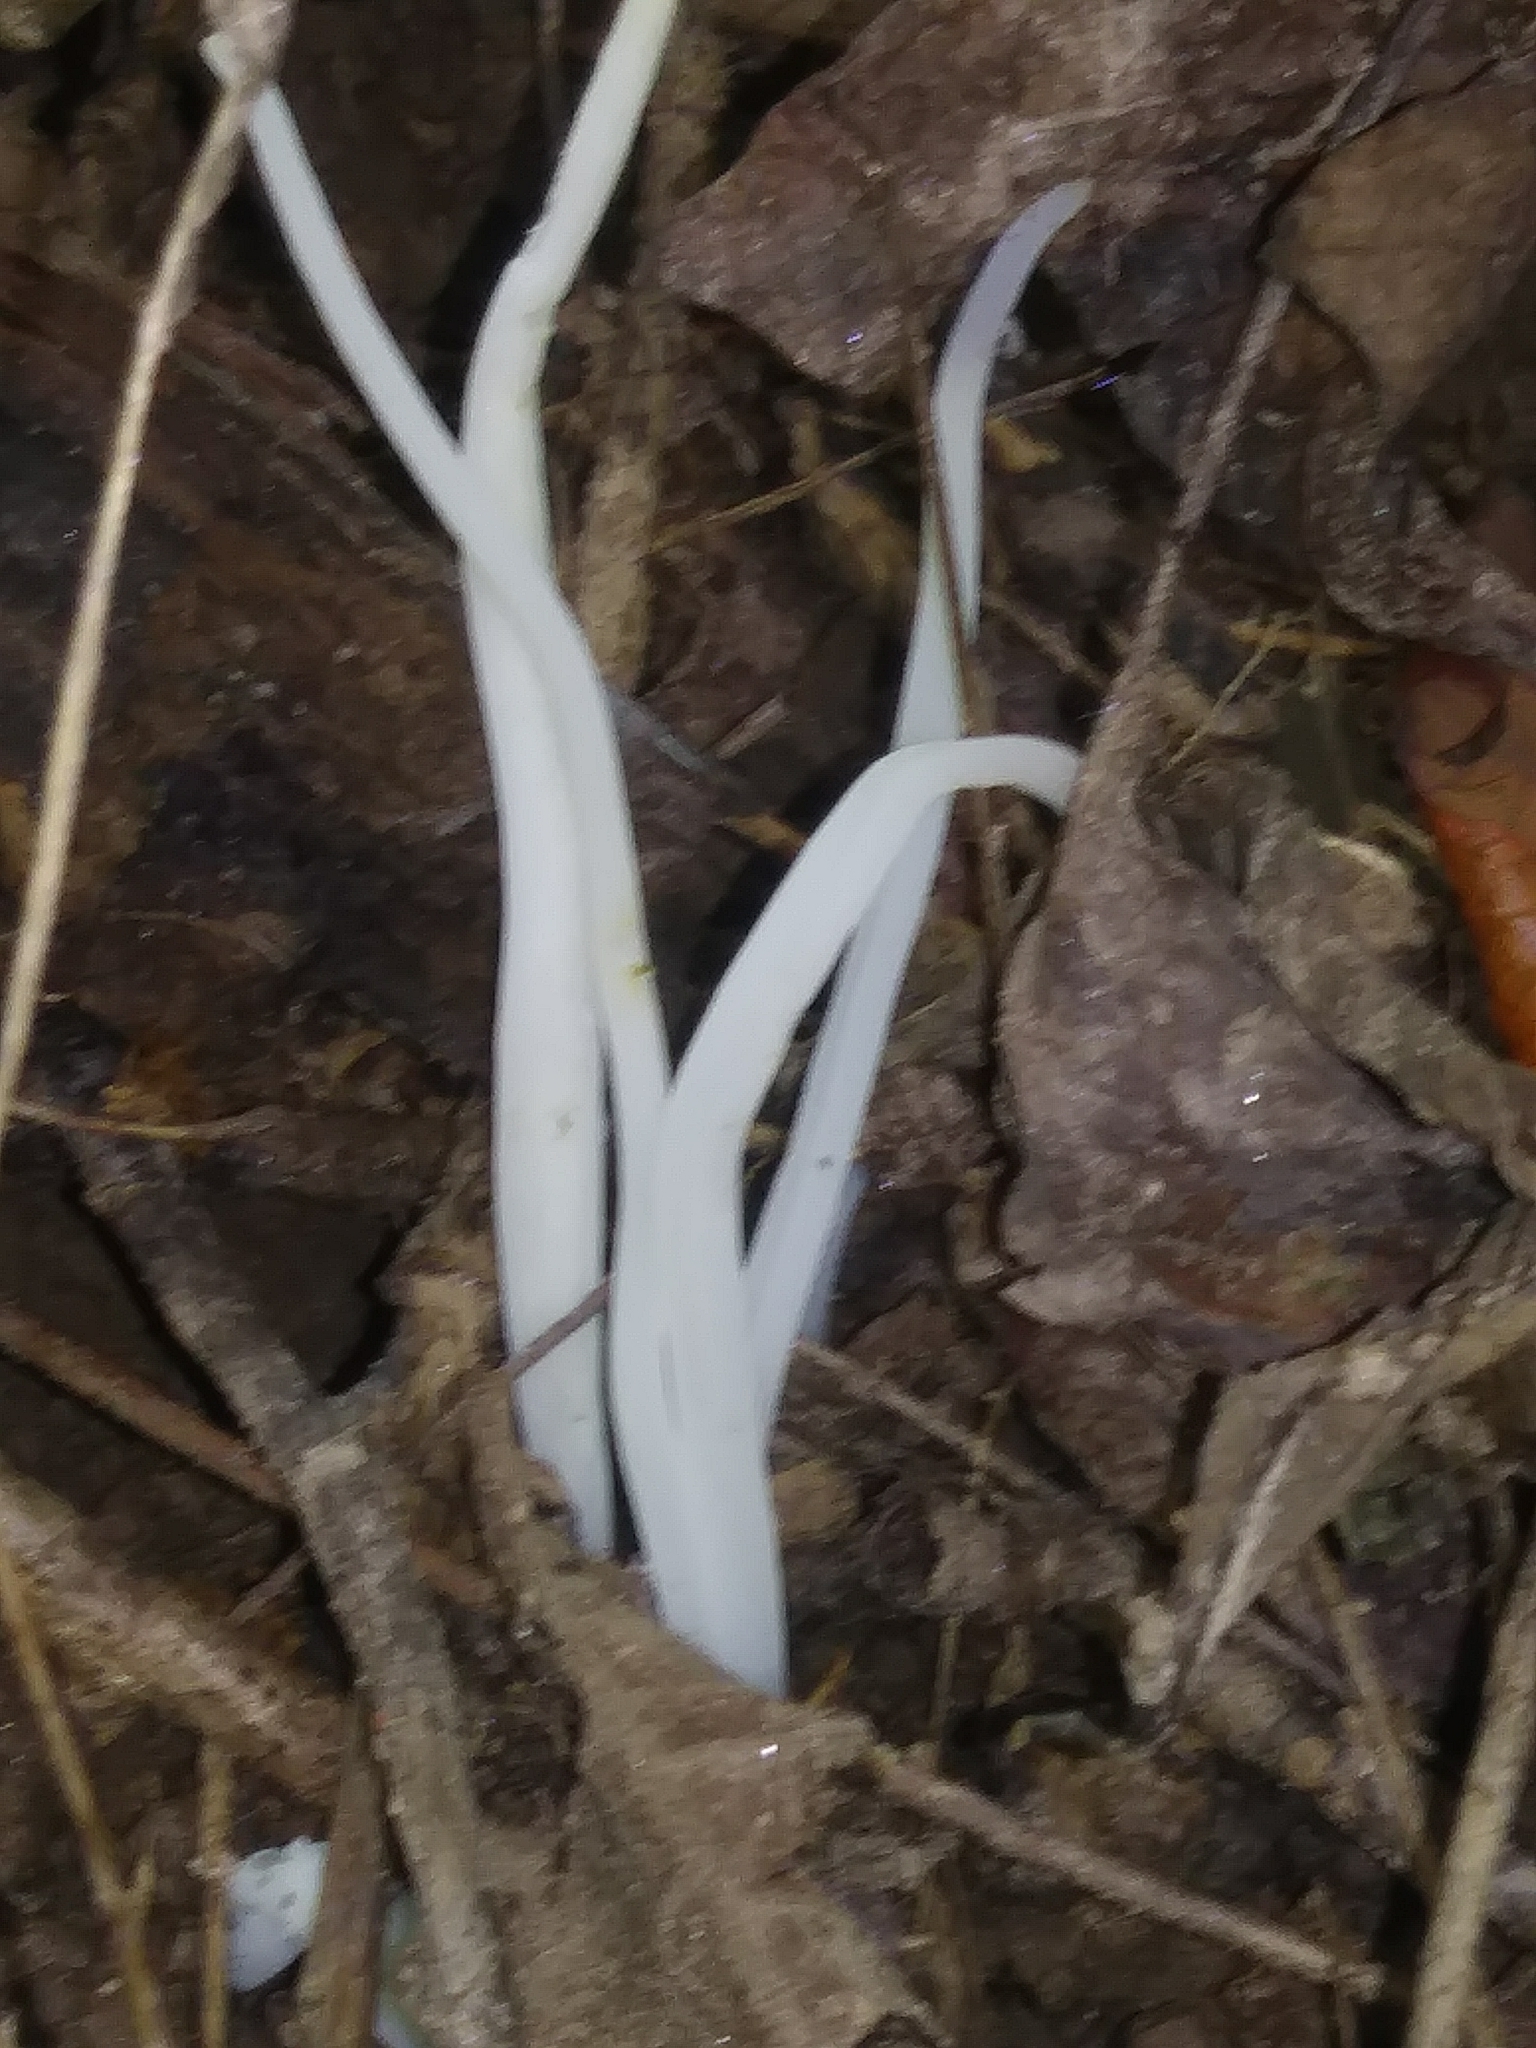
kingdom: Fungi
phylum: Basidiomycota
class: Agaricomycetes
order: Agaricales
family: Clavariaceae
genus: Clavaria
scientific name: Clavaria fragilis
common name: White spindles
